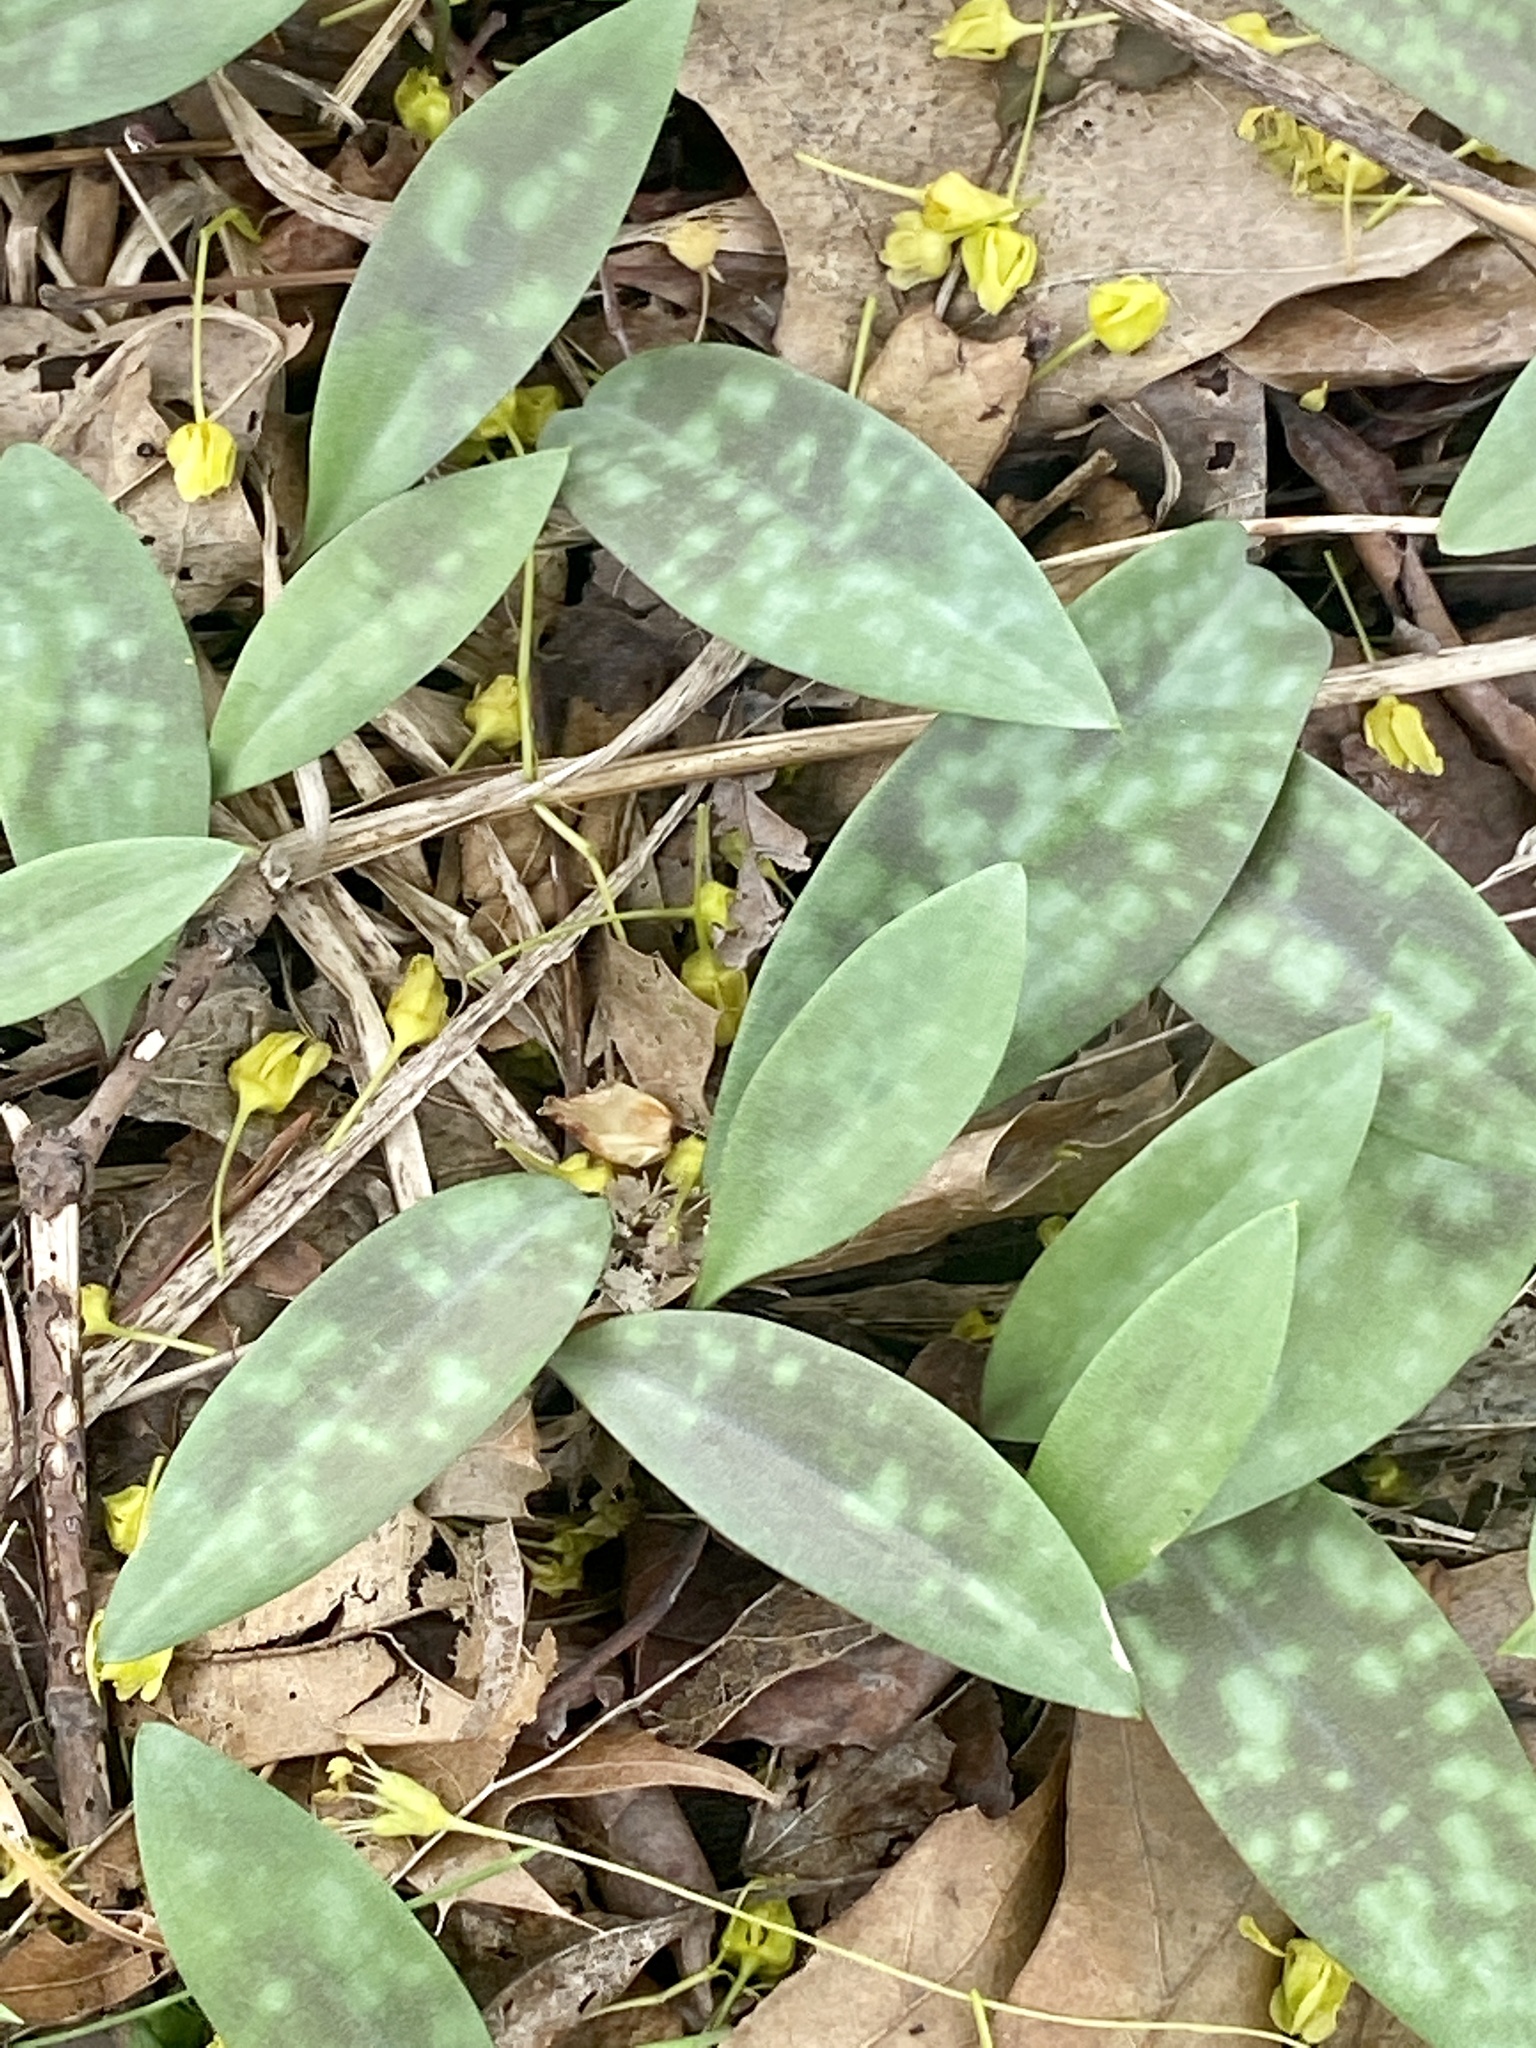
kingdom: Plantae
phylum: Tracheophyta
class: Liliopsida
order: Liliales
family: Liliaceae
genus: Erythronium
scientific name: Erythronium americanum
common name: Yellow adder's-tongue
